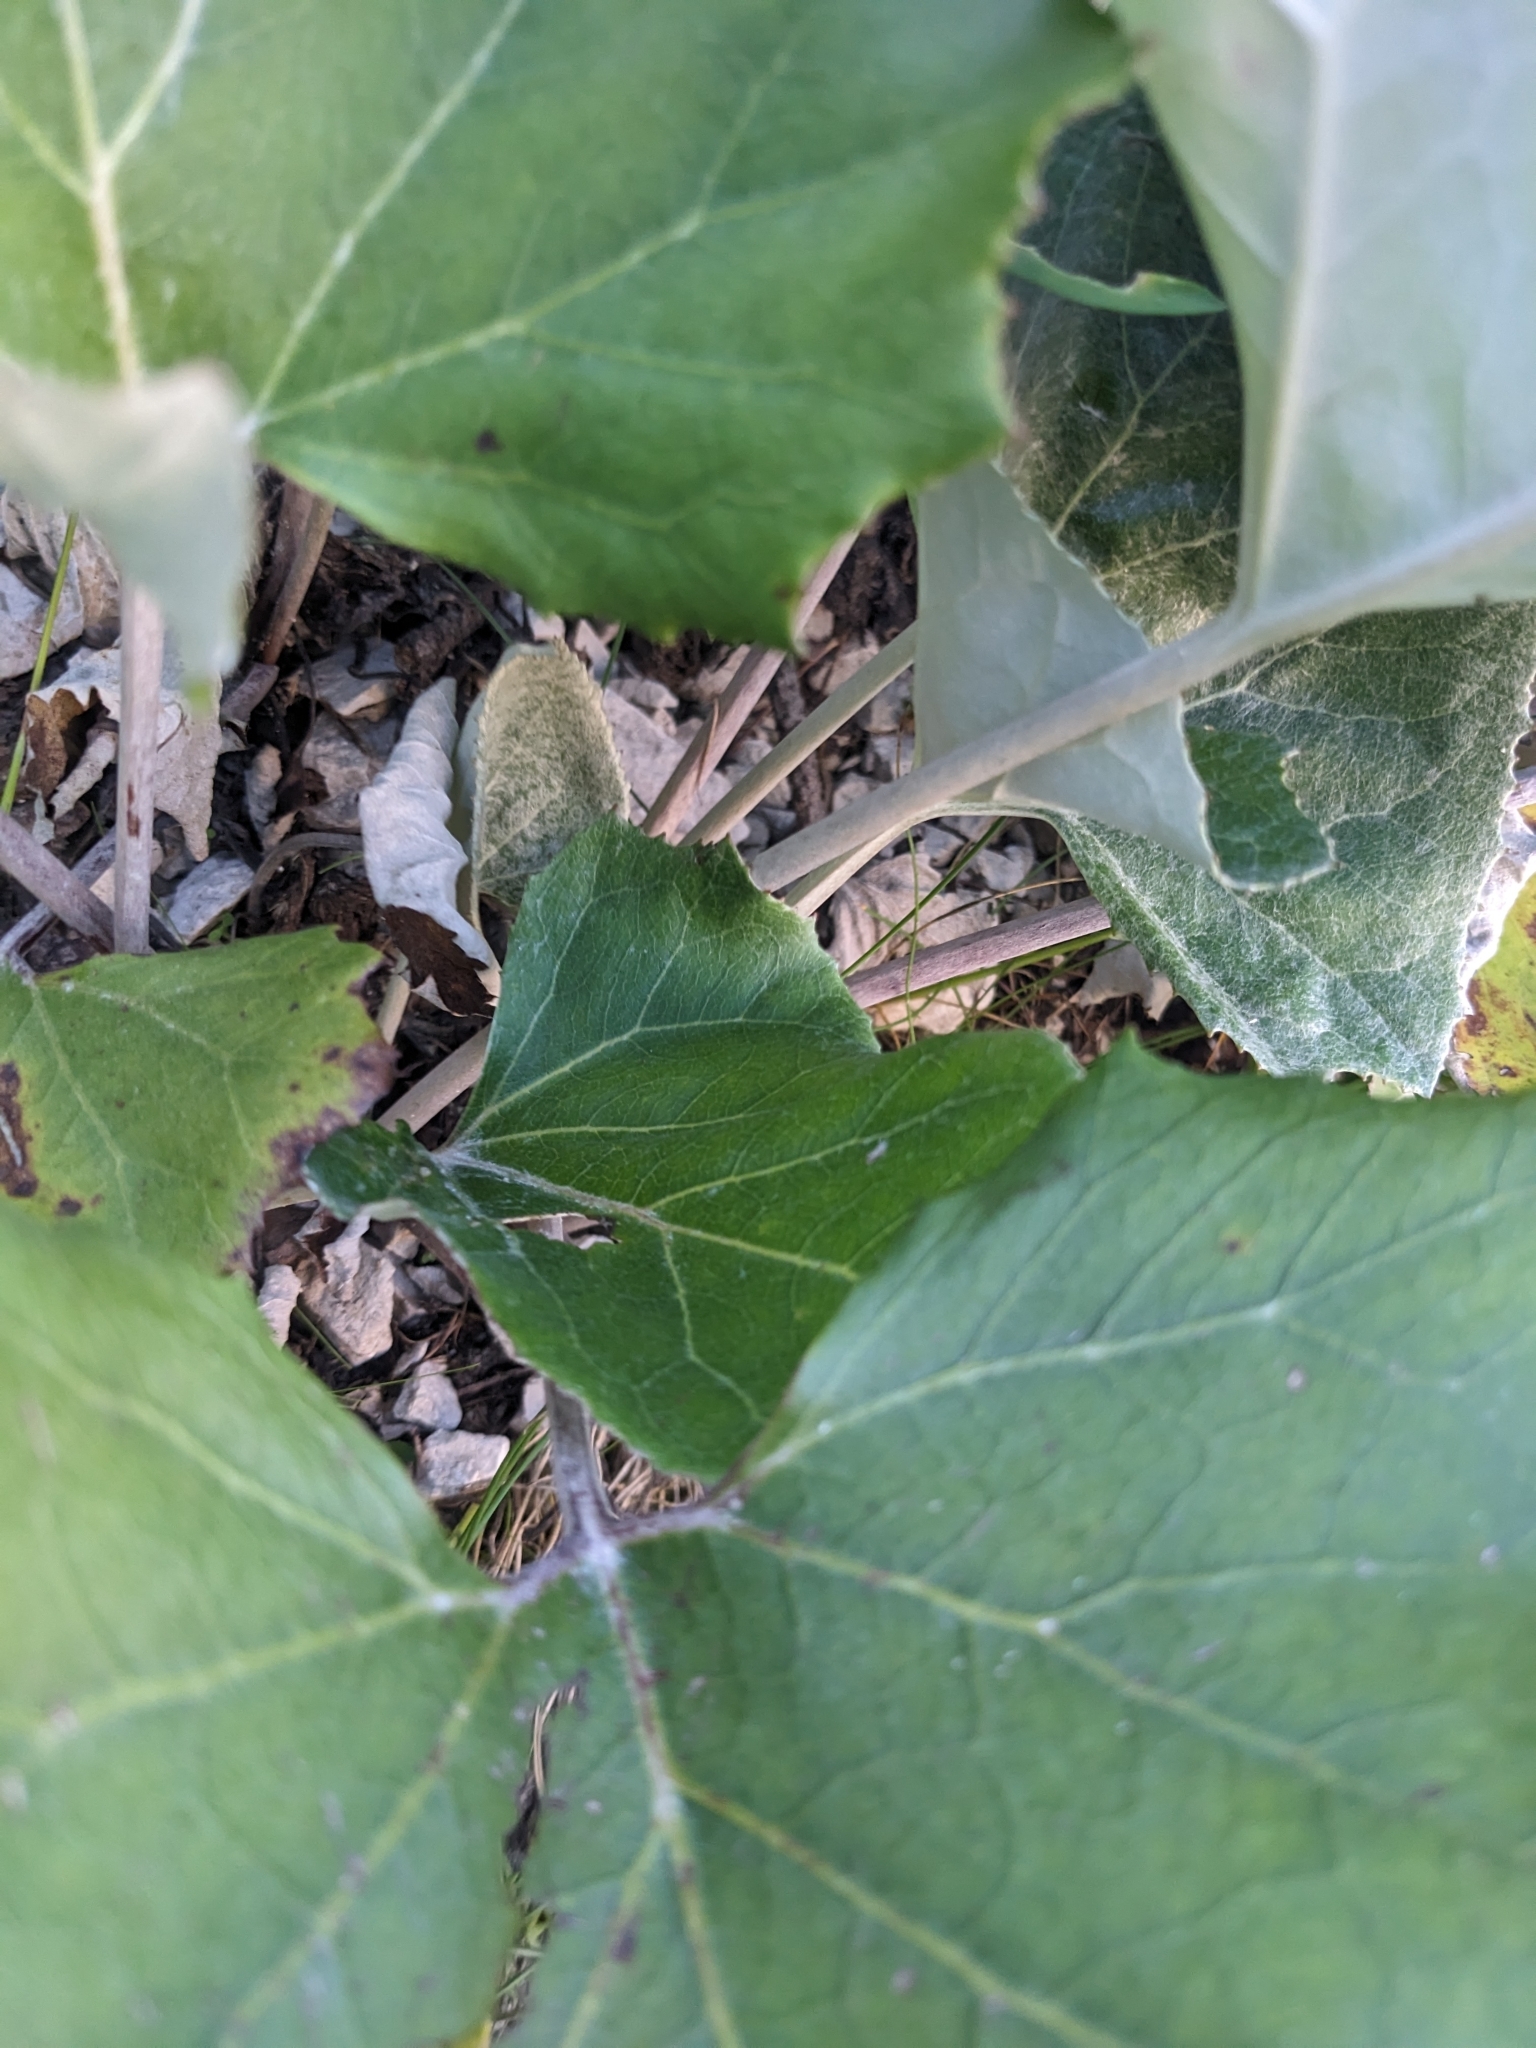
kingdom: Plantae
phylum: Tracheophyta
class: Magnoliopsida
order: Asterales
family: Asteraceae
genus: Petasites
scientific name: Petasites paradoxus
